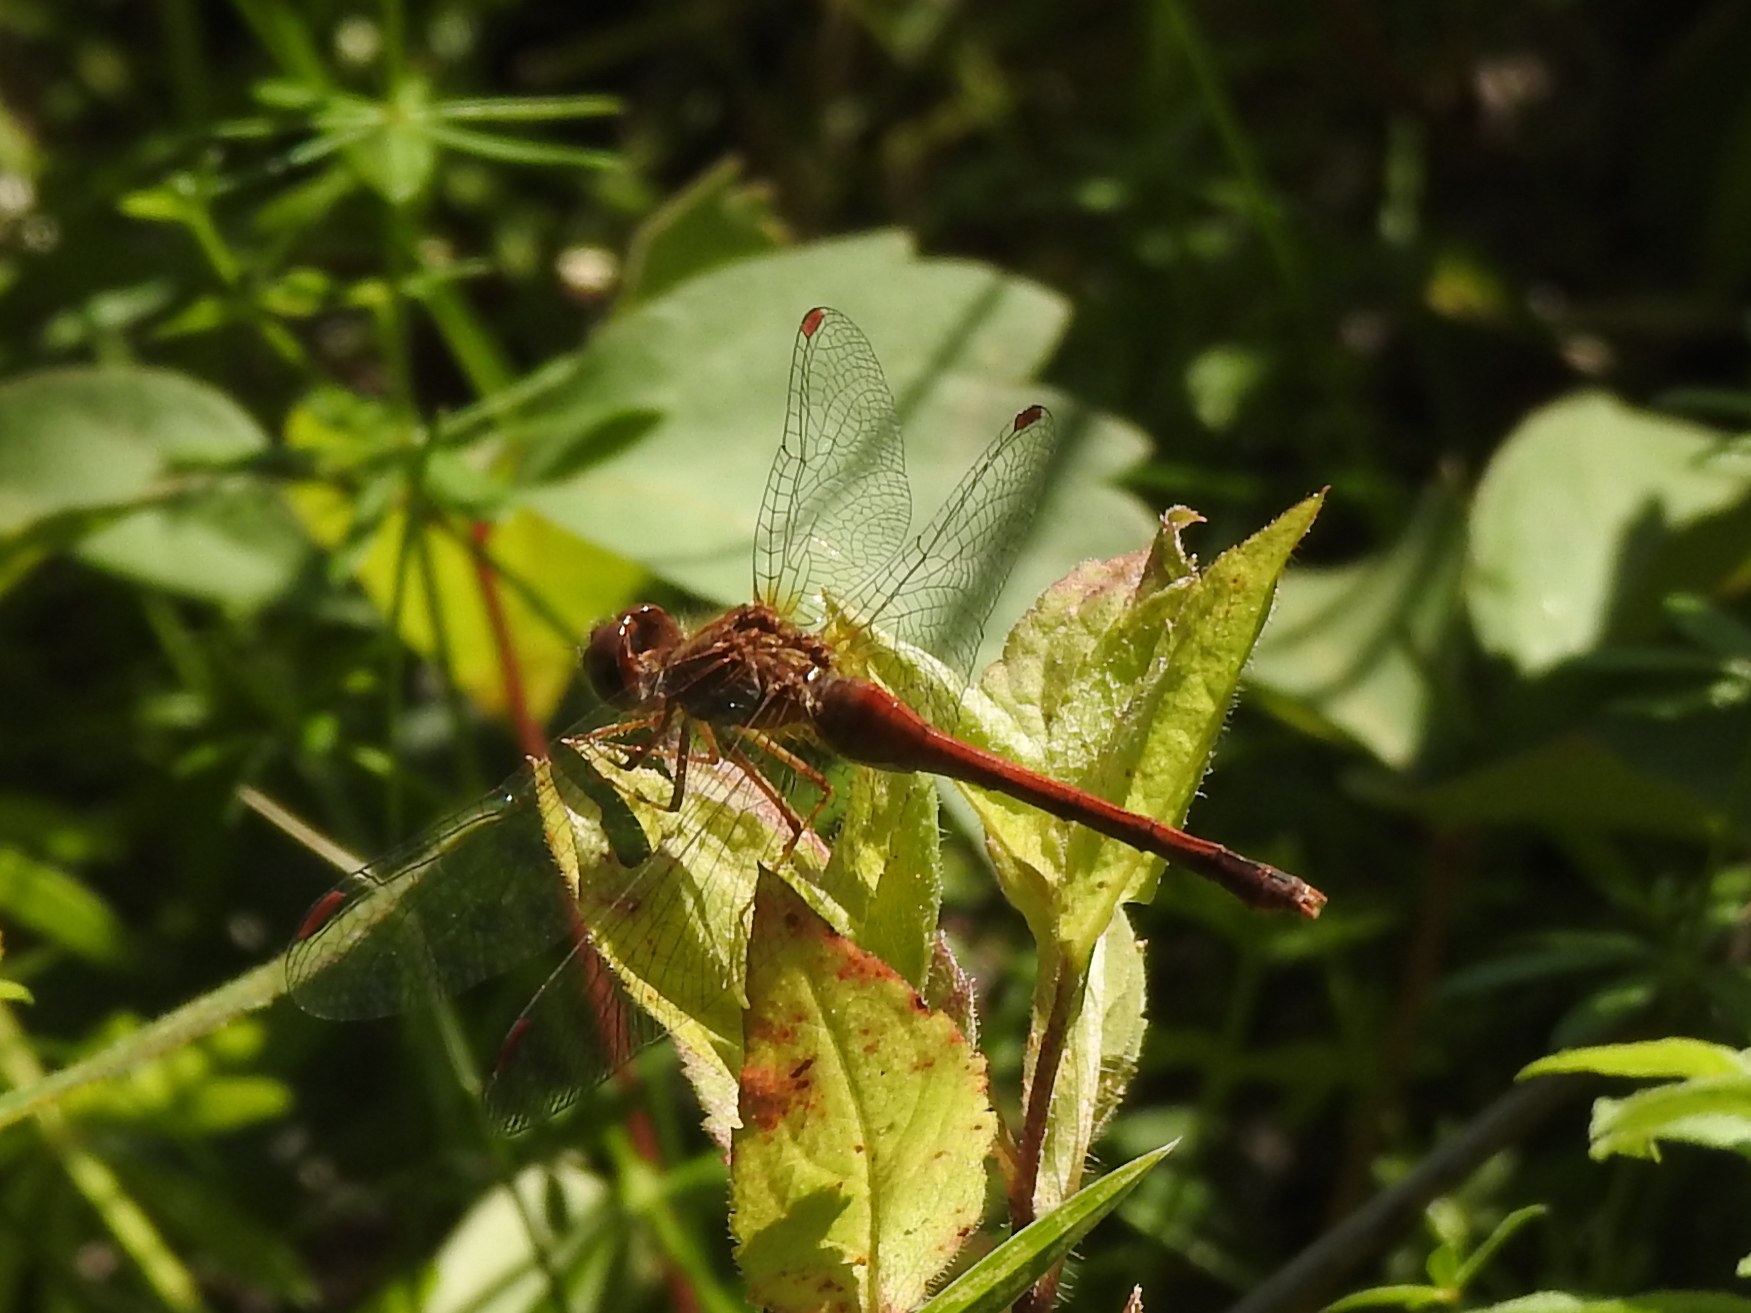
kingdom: Animalia
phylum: Arthropoda
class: Insecta
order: Odonata
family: Libellulidae
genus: Sympetrum
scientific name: Sympetrum vicinum
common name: Autumn meadowhawk
